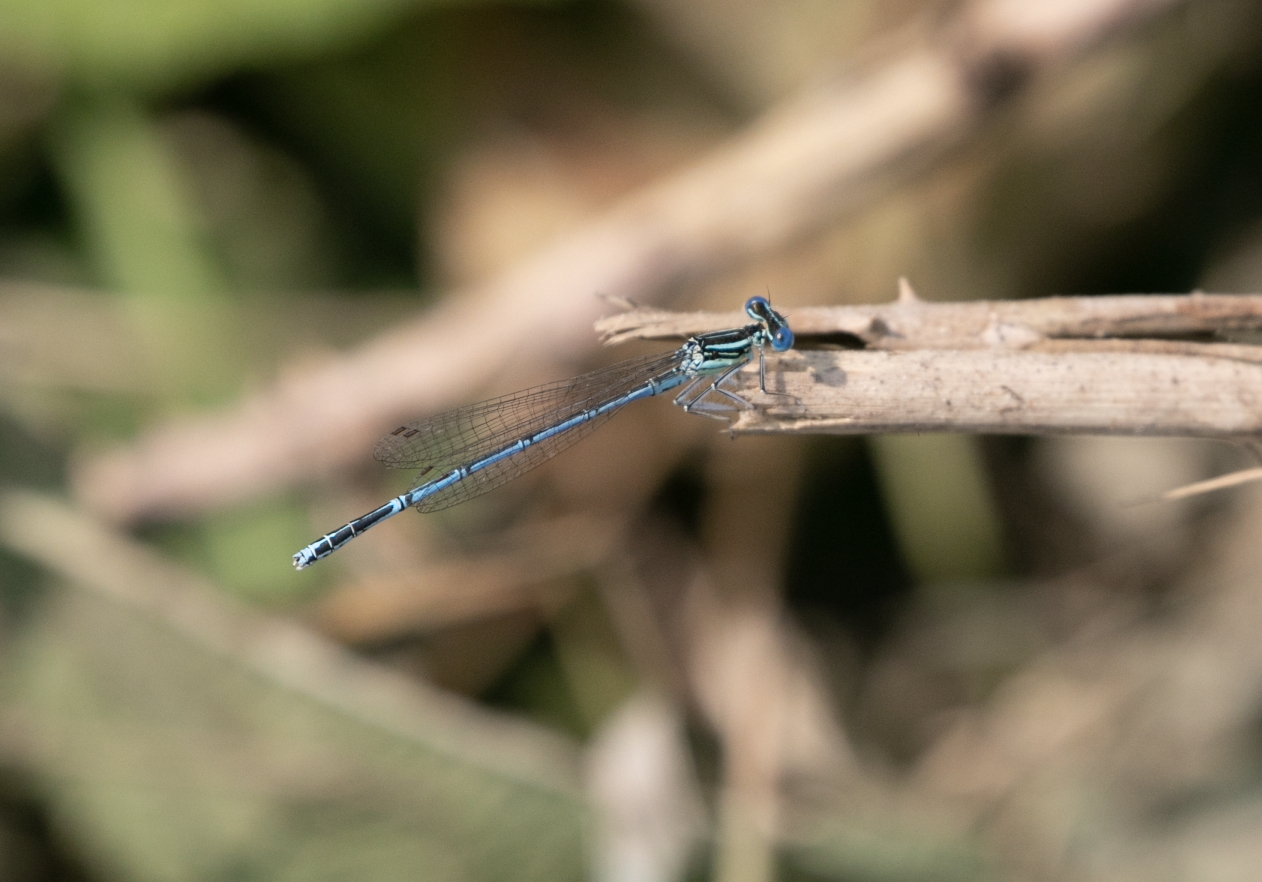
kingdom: Animalia
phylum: Arthropoda
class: Insecta
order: Odonata
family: Platycnemididae
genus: Platycnemis
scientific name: Platycnemis pennipes
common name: White-legged damselfly
